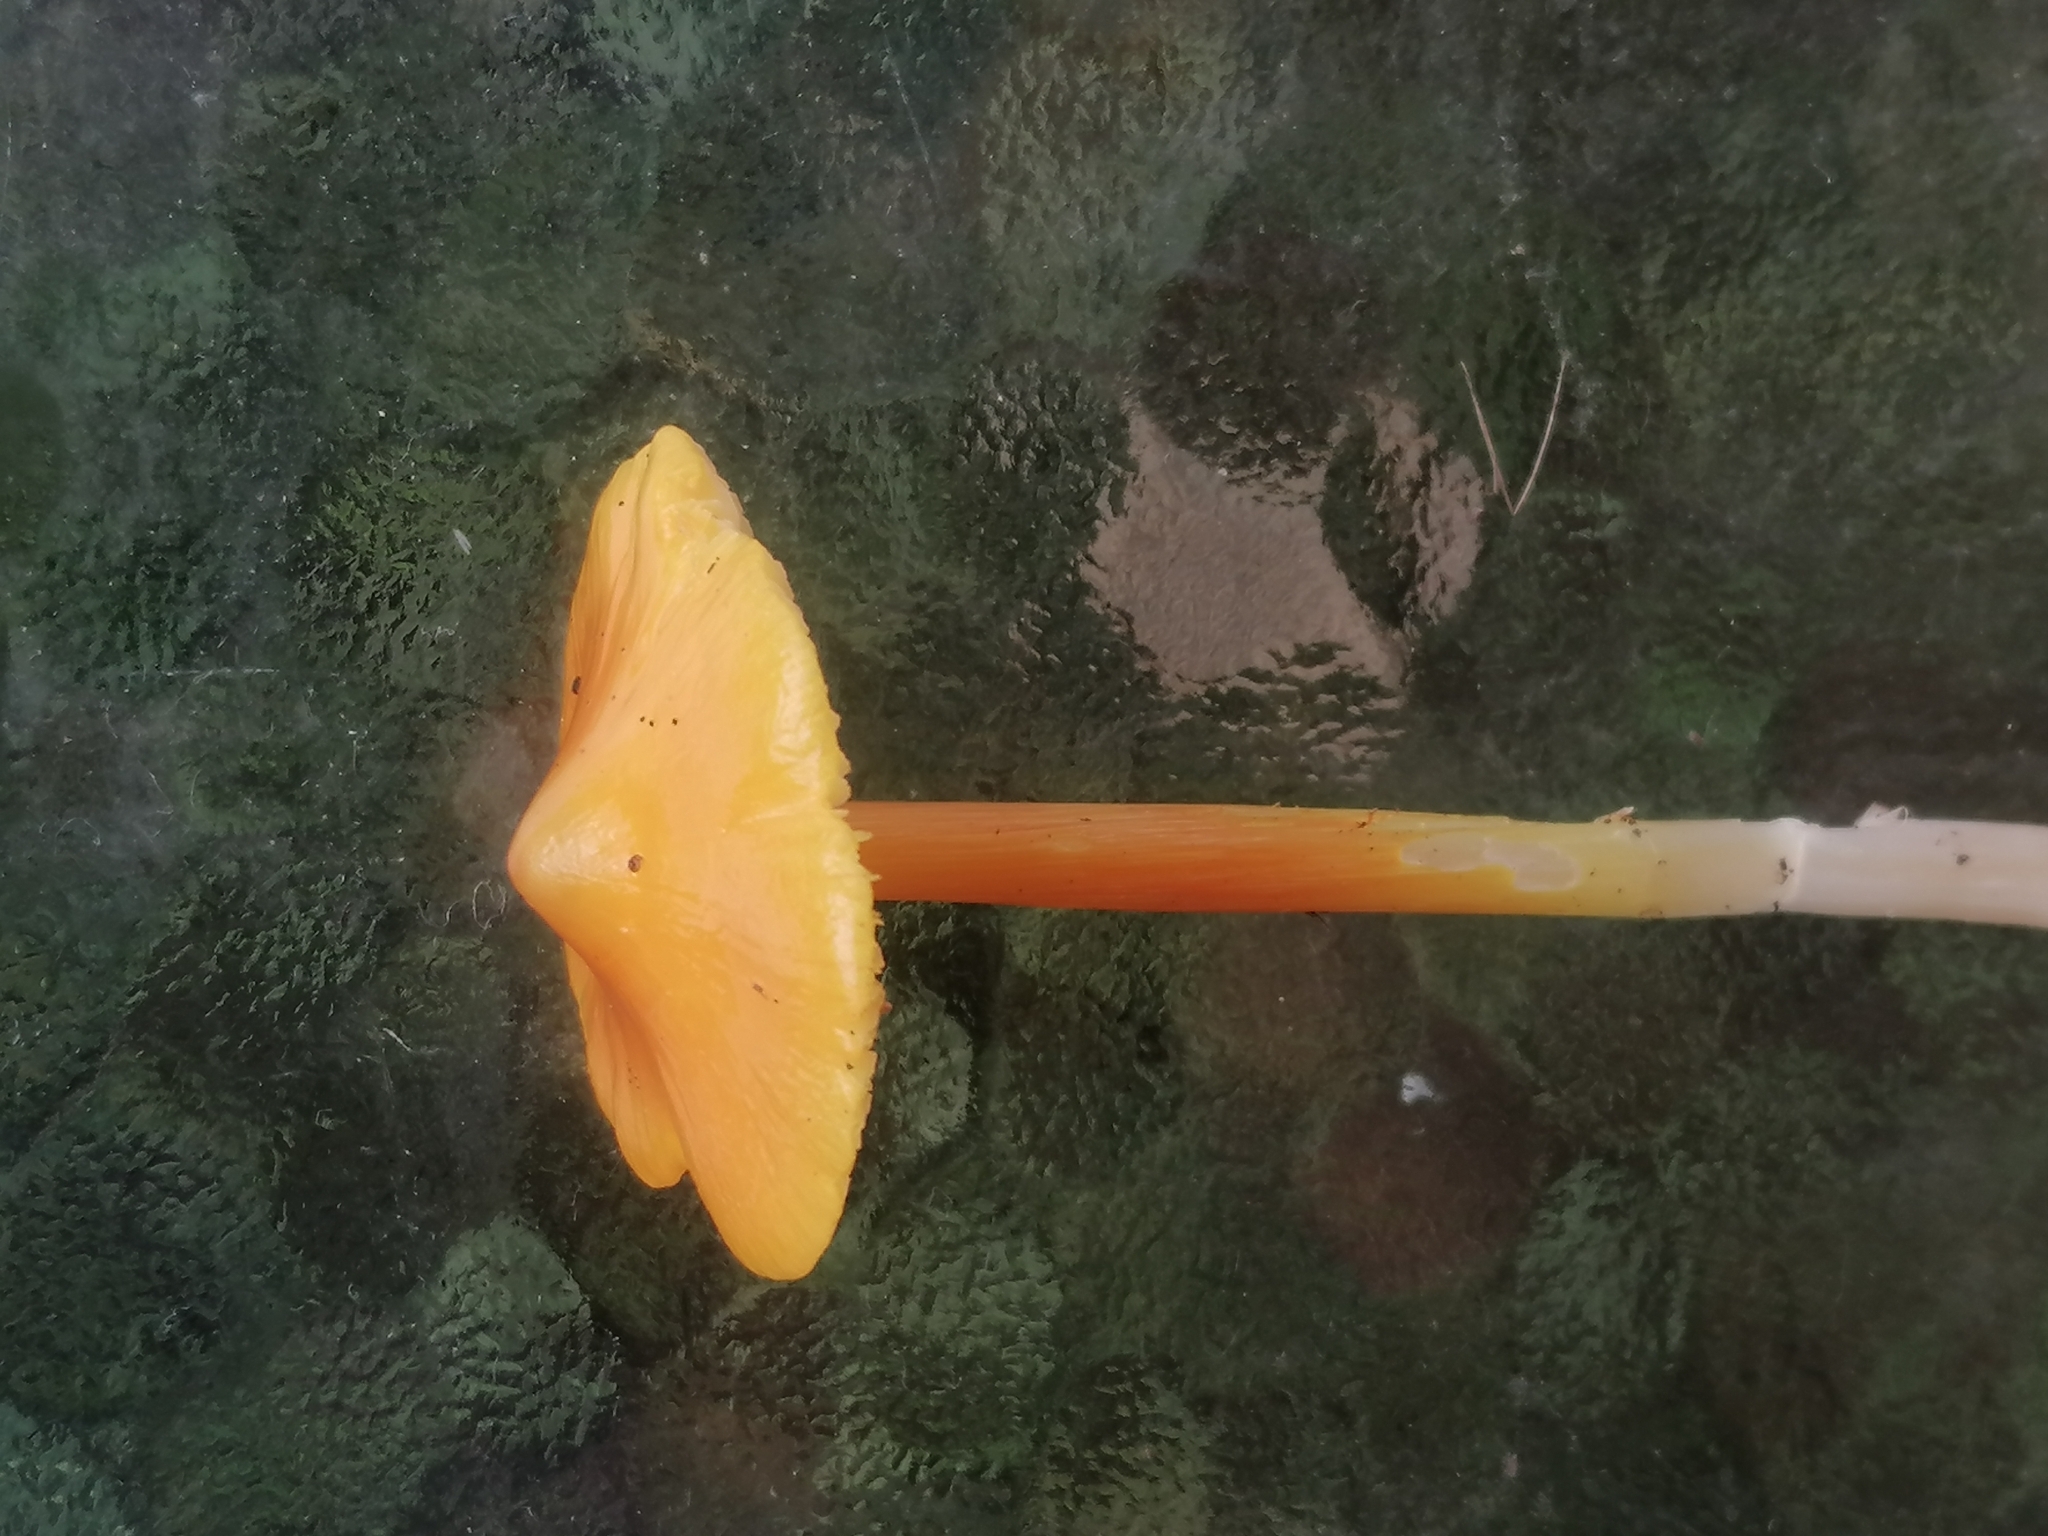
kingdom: Fungi
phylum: Basidiomycota
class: Agaricomycetes
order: Agaricales
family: Hygrophoraceae
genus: Hygrocybe
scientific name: Hygrocybe acutoconica
